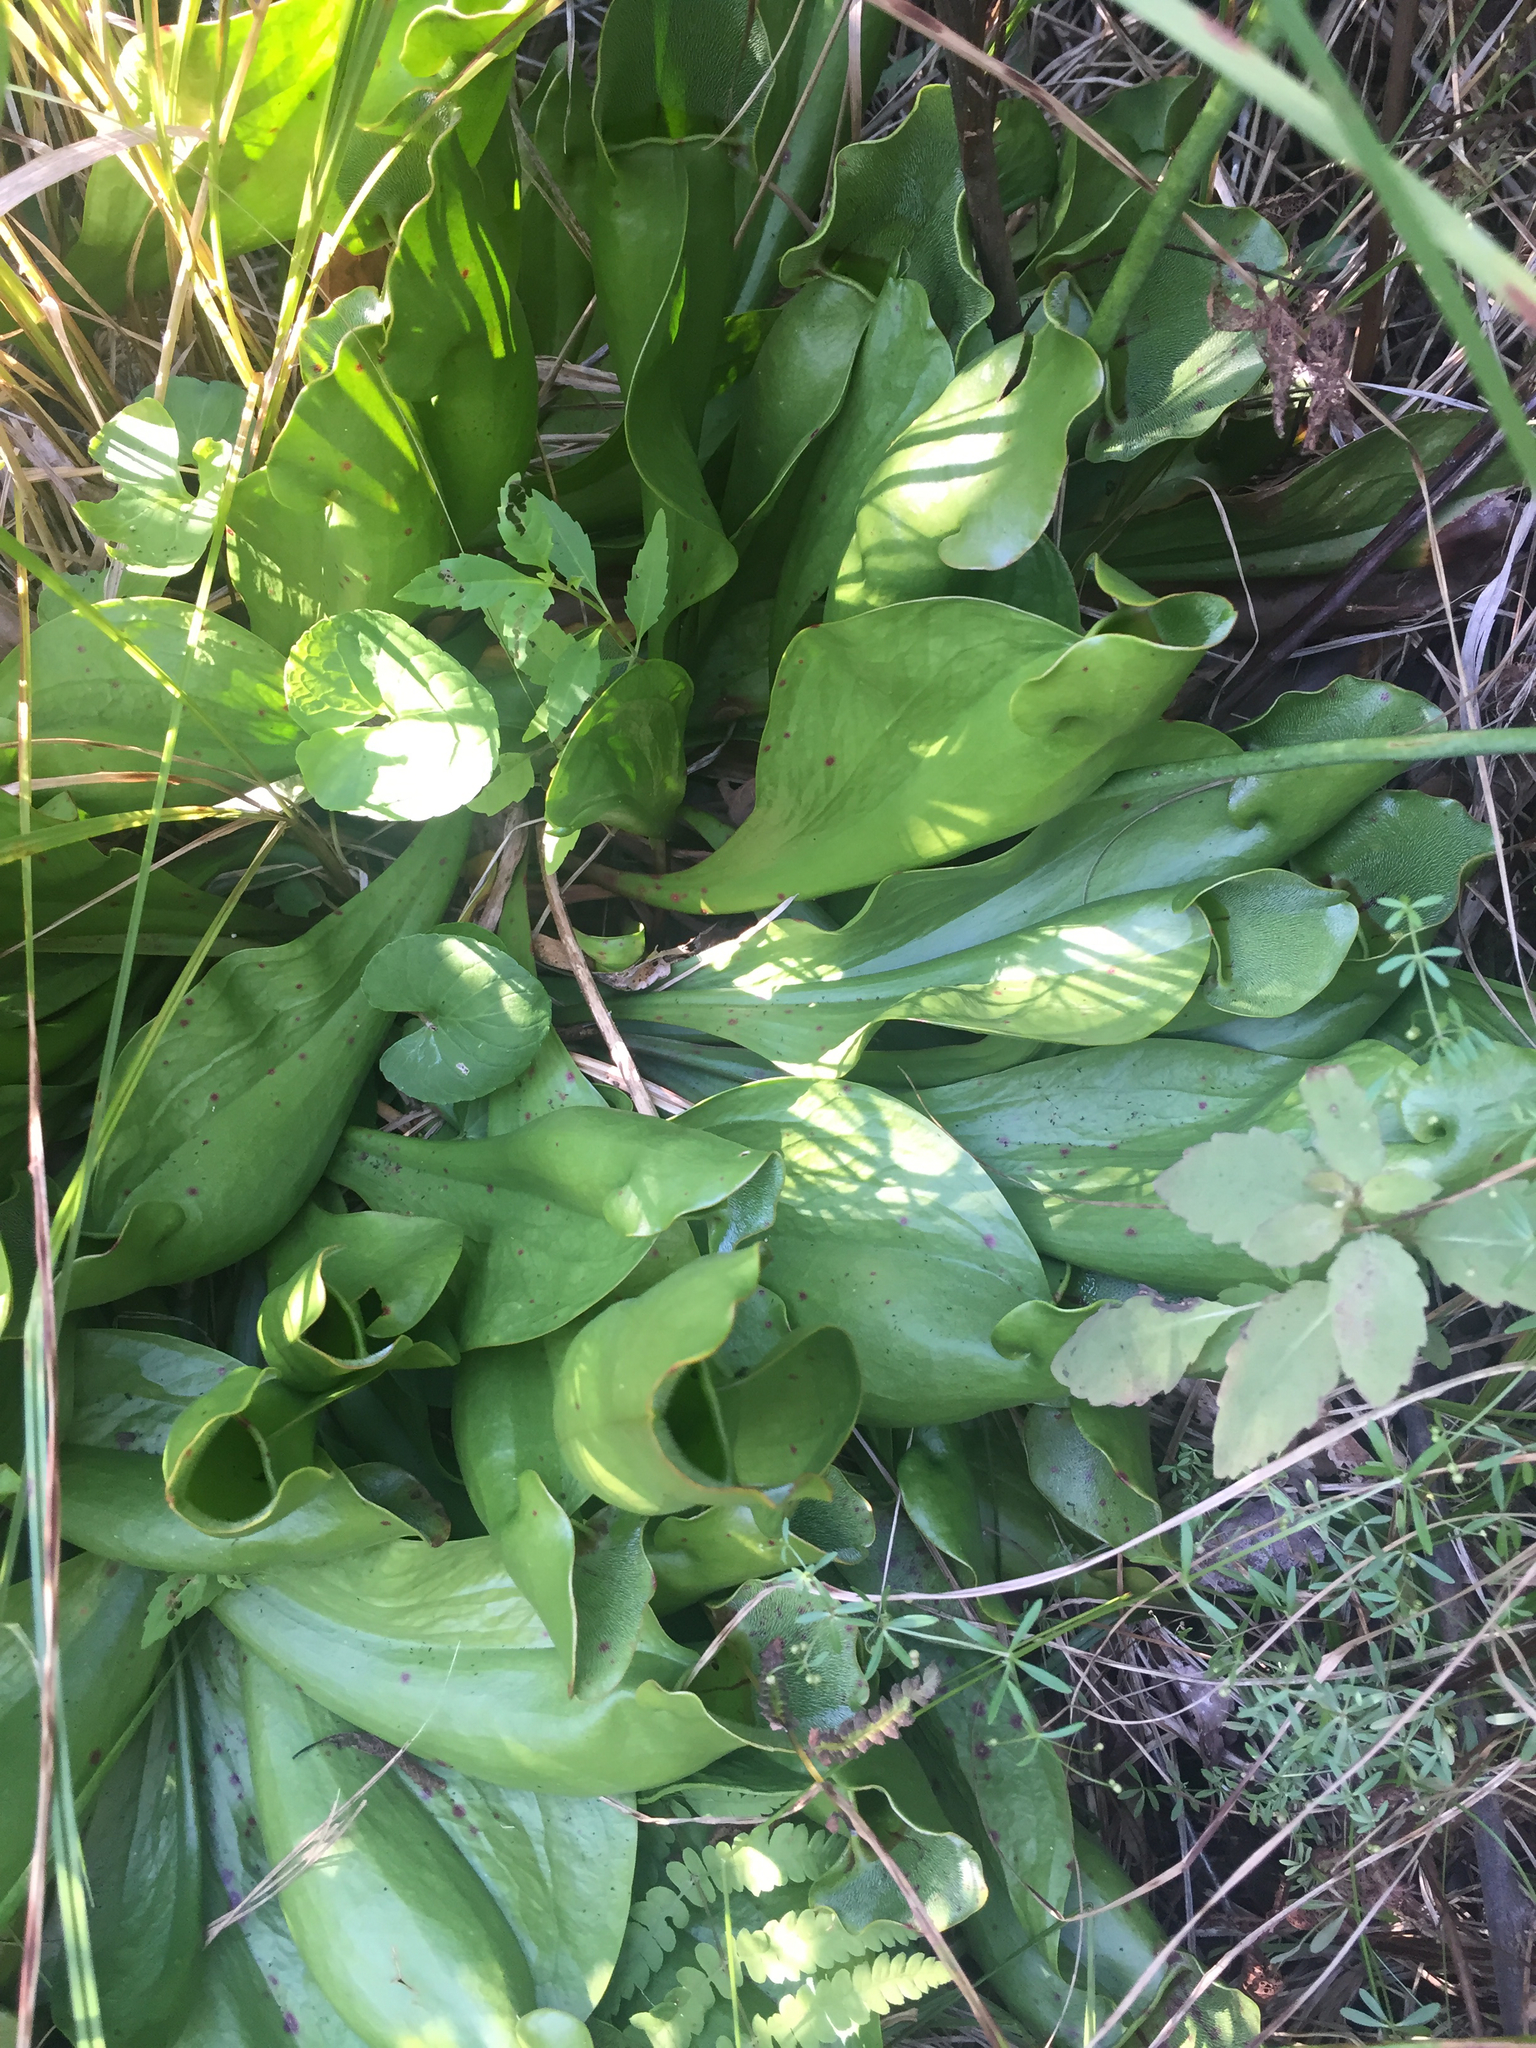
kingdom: Plantae
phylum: Tracheophyta
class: Magnoliopsida
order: Ericales
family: Sarraceniaceae
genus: Sarracenia
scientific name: Sarracenia purpurea
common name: Pitcherplant
